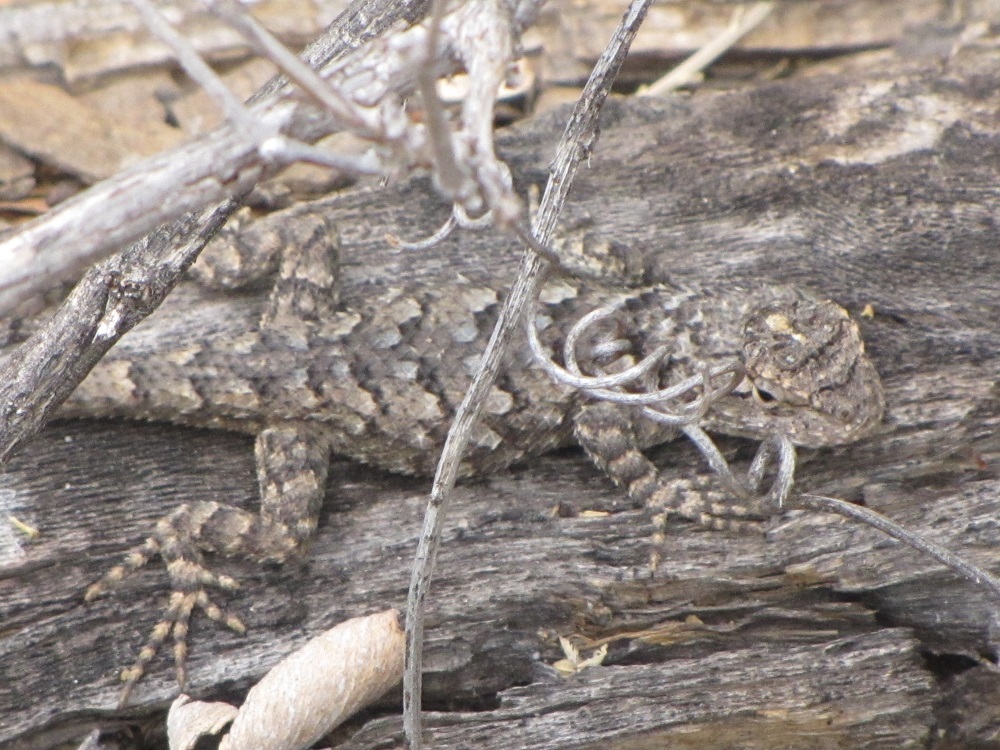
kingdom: Animalia
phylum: Chordata
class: Squamata
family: Phrynosomatidae
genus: Sceloporus
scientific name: Sceloporus clarkii
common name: Clark's spiny lizard
